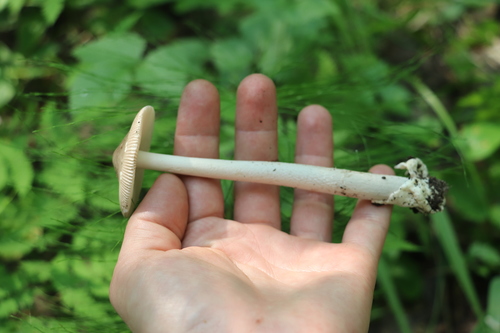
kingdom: Fungi
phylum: Basidiomycota
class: Agaricomycetes
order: Agaricales
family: Amanitaceae
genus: Amanita
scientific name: Amanita
